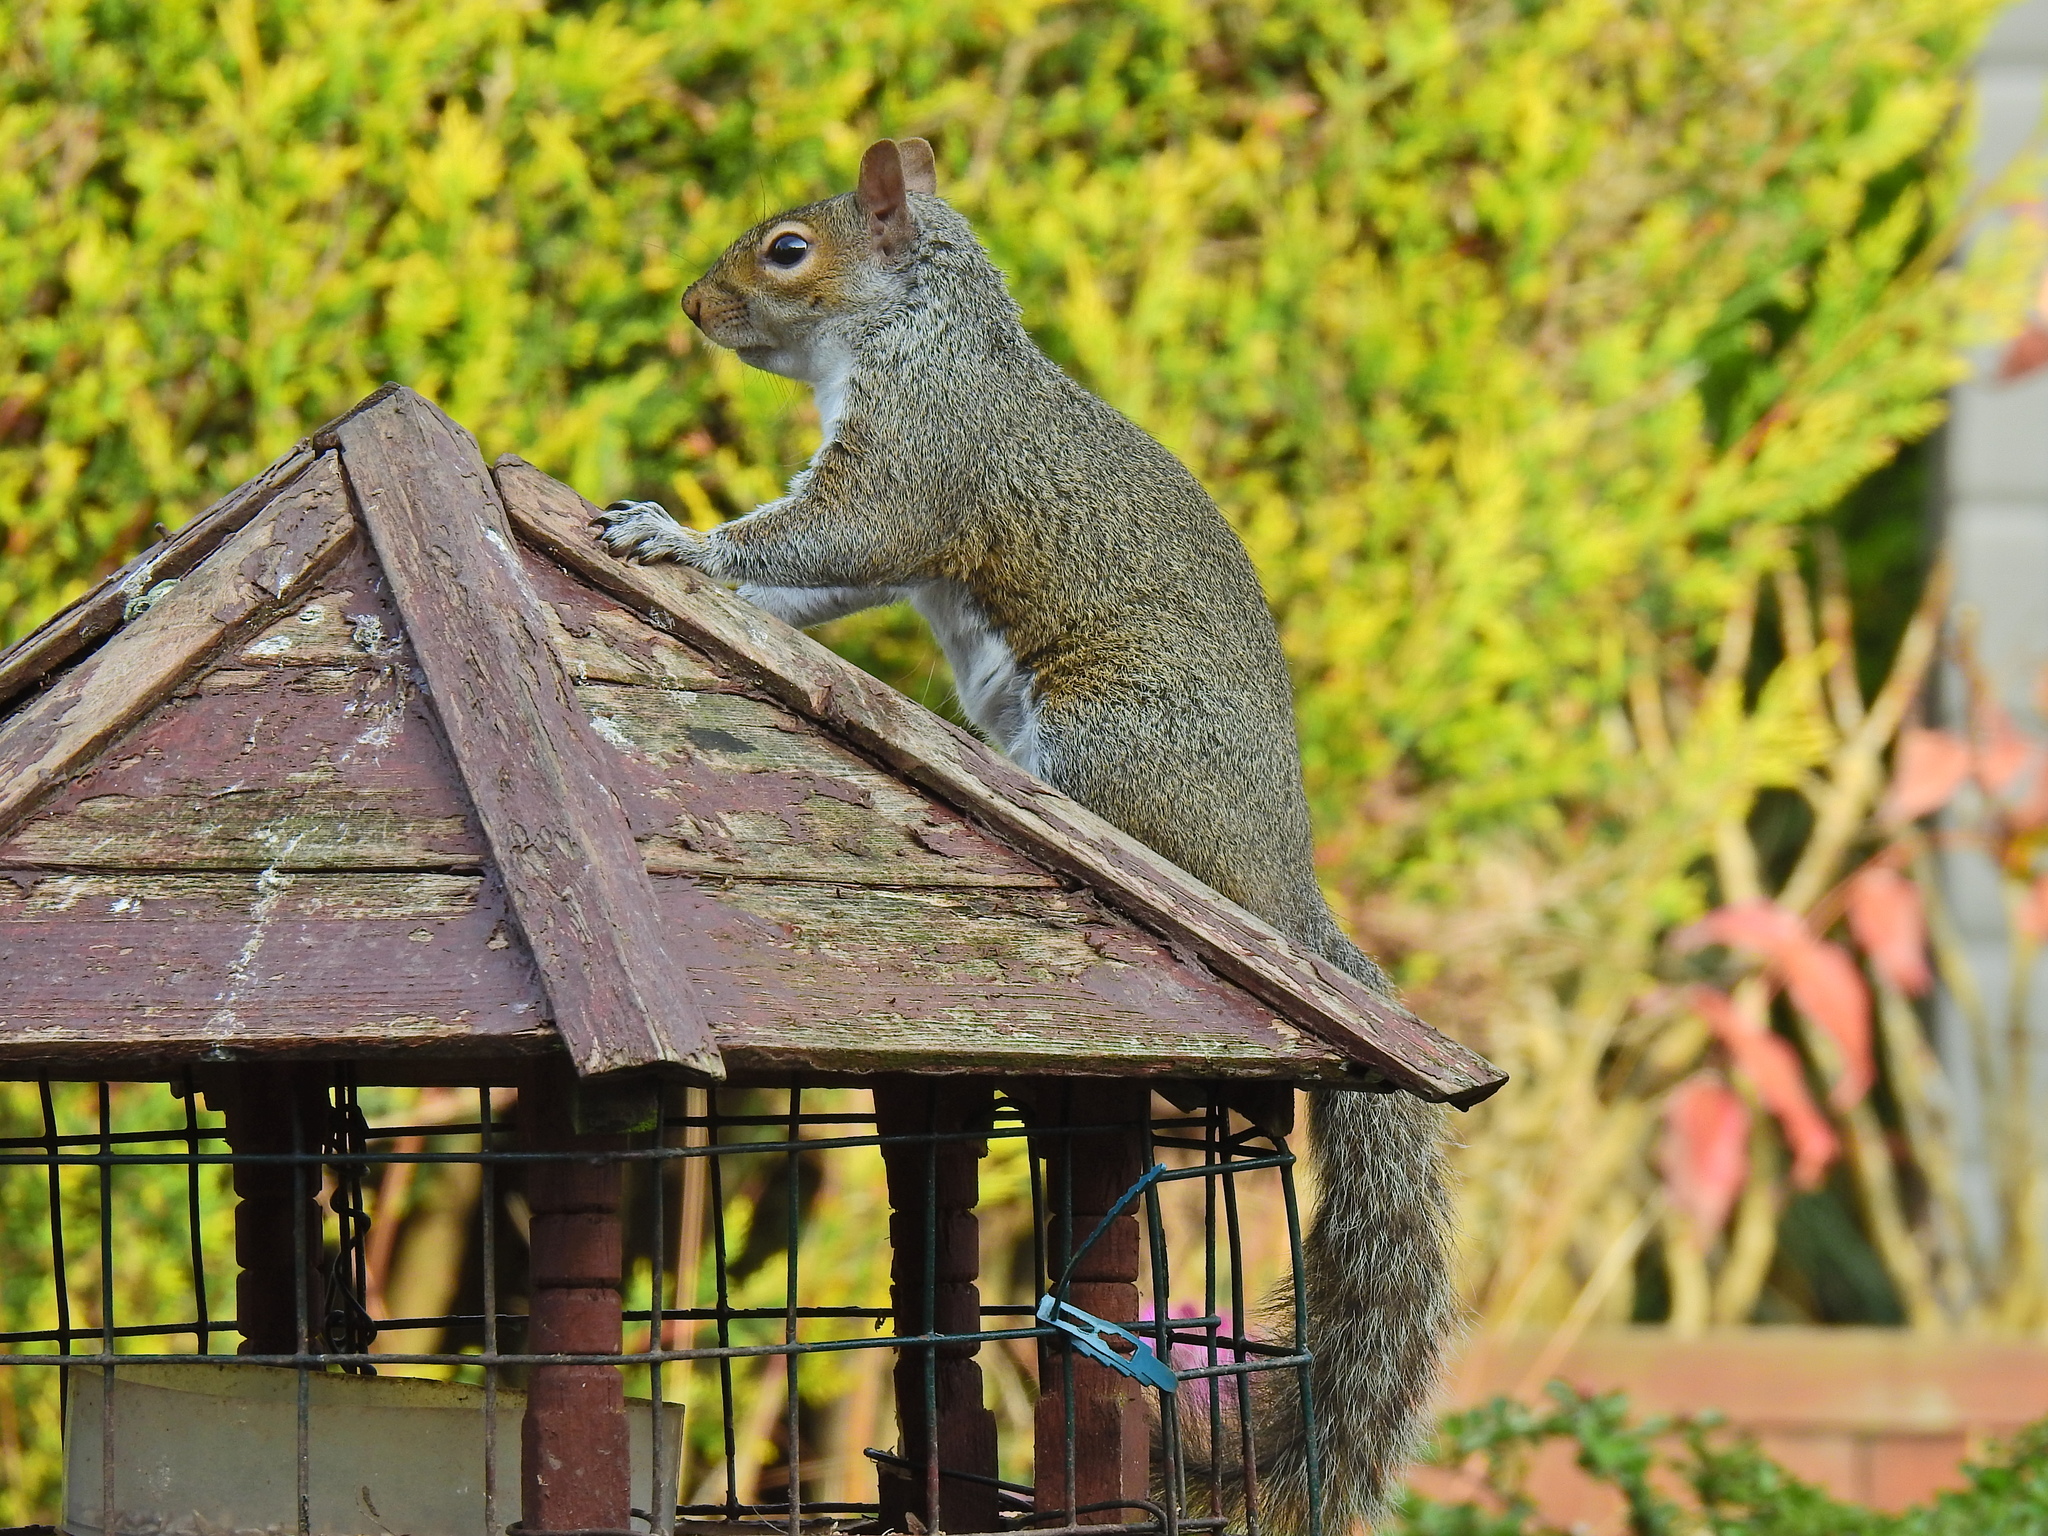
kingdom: Animalia
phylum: Chordata
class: Mammalia
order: Rodentia
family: Sciuridae
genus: Sciurus
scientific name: Sciurus carolinensis
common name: Eastern gray squirrel
